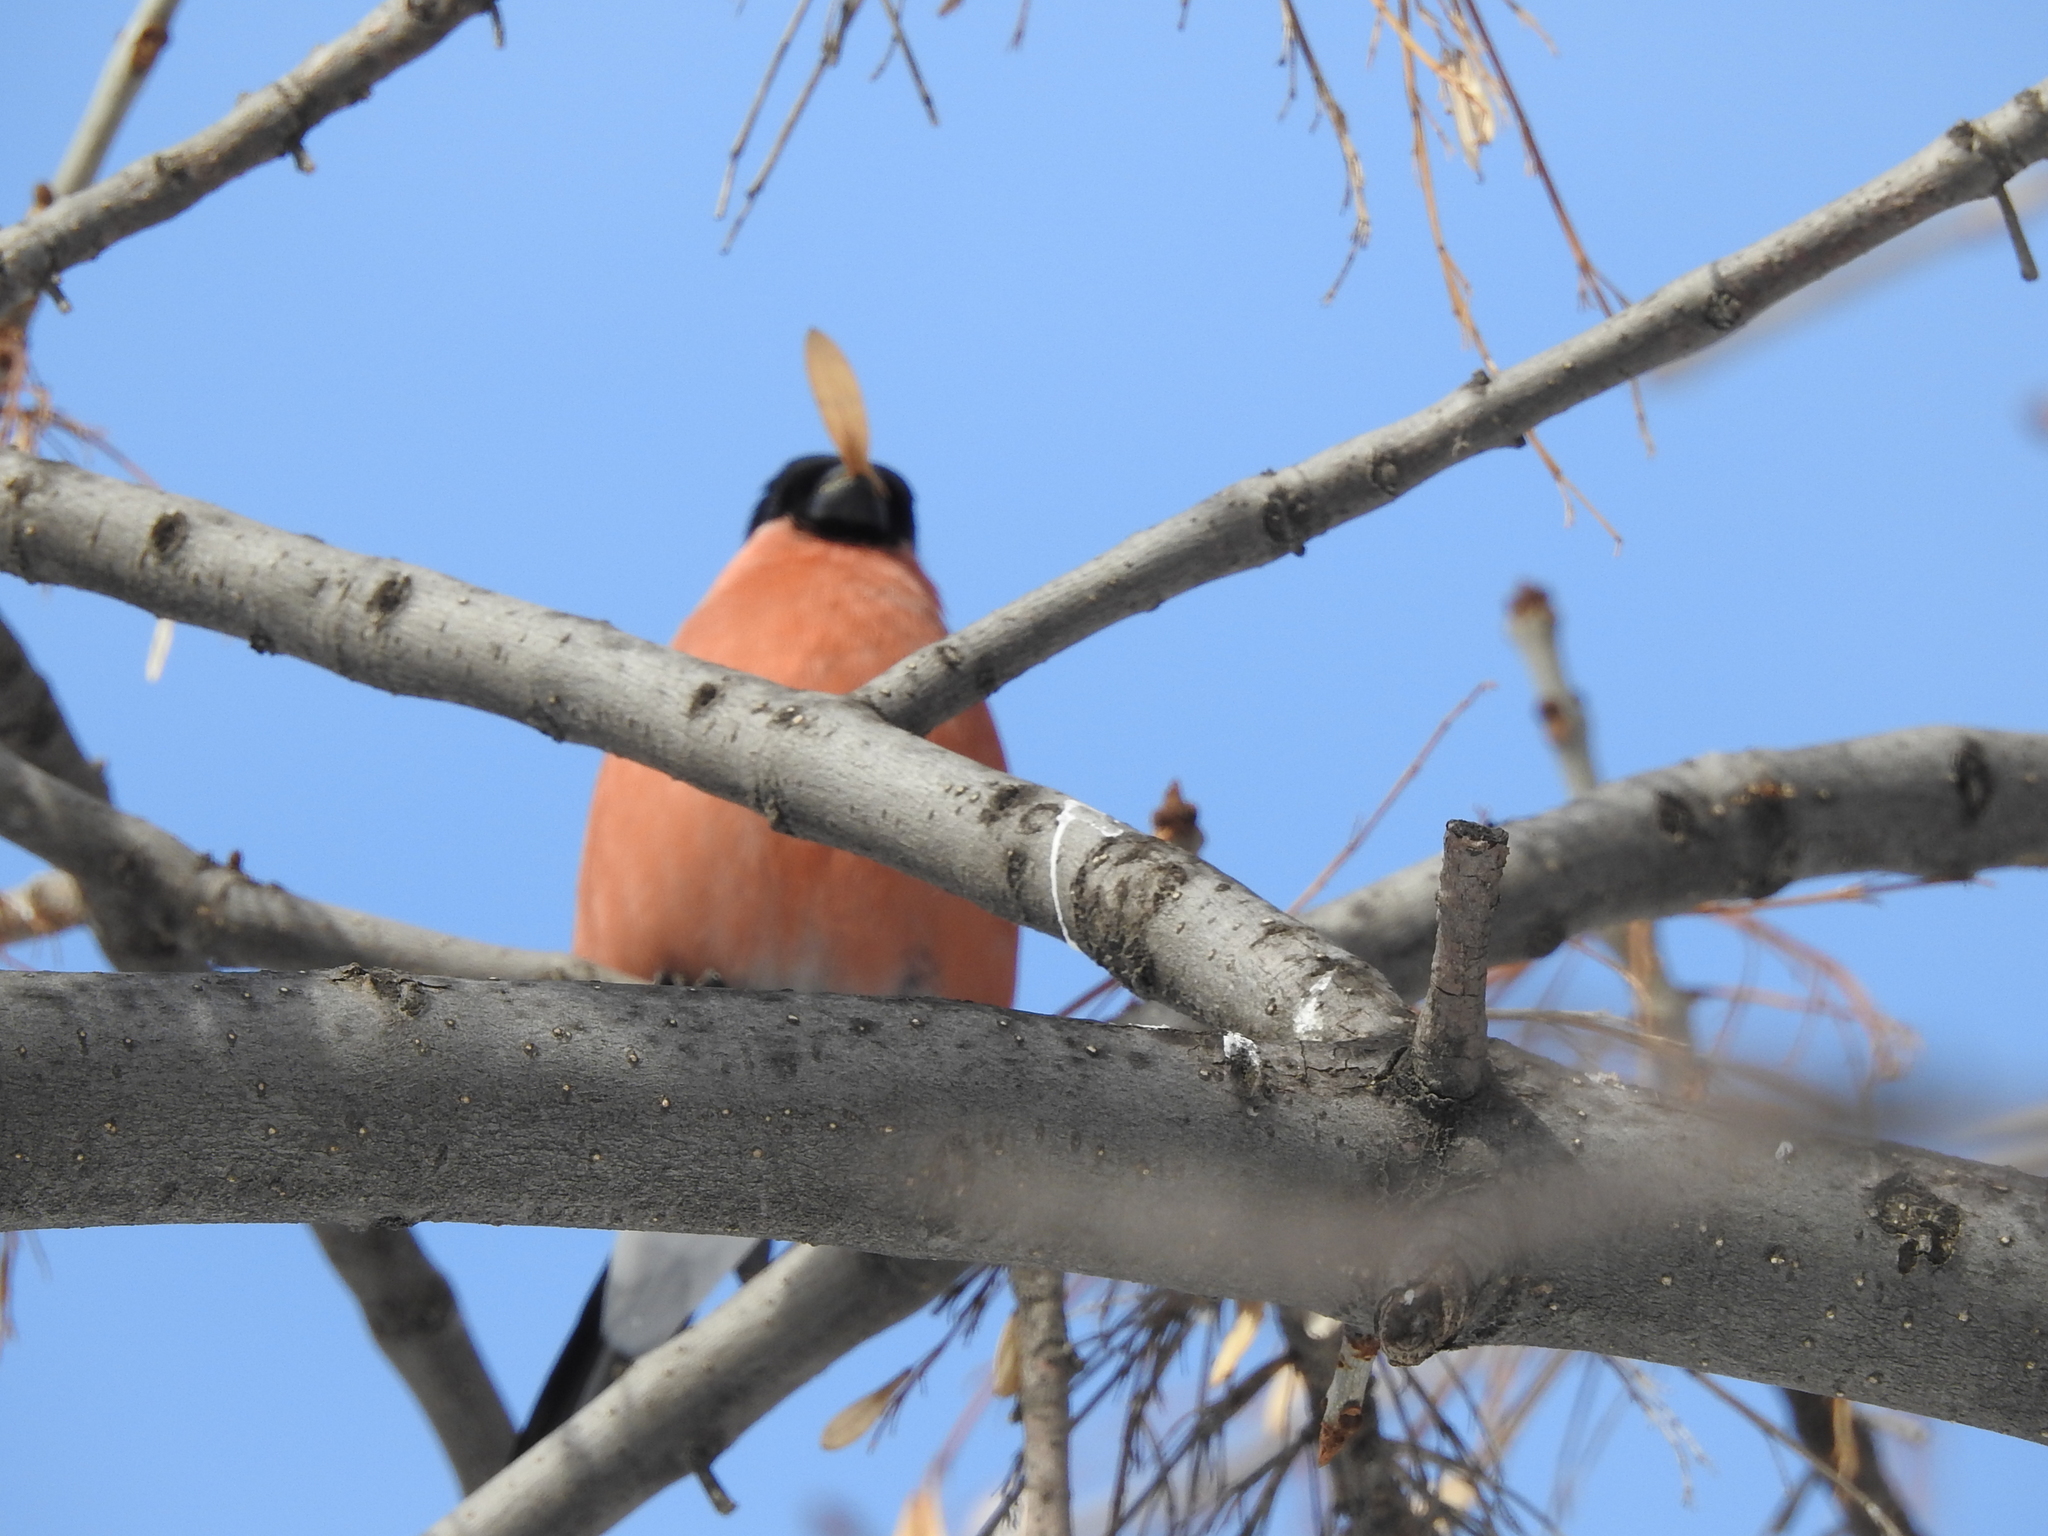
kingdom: Animalia
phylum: Chordata
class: Aves
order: Passeriformes
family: Fringillidae
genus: Pyrrhula
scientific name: Pyrrhula pyrrhula
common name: Eurasian bullfinch
